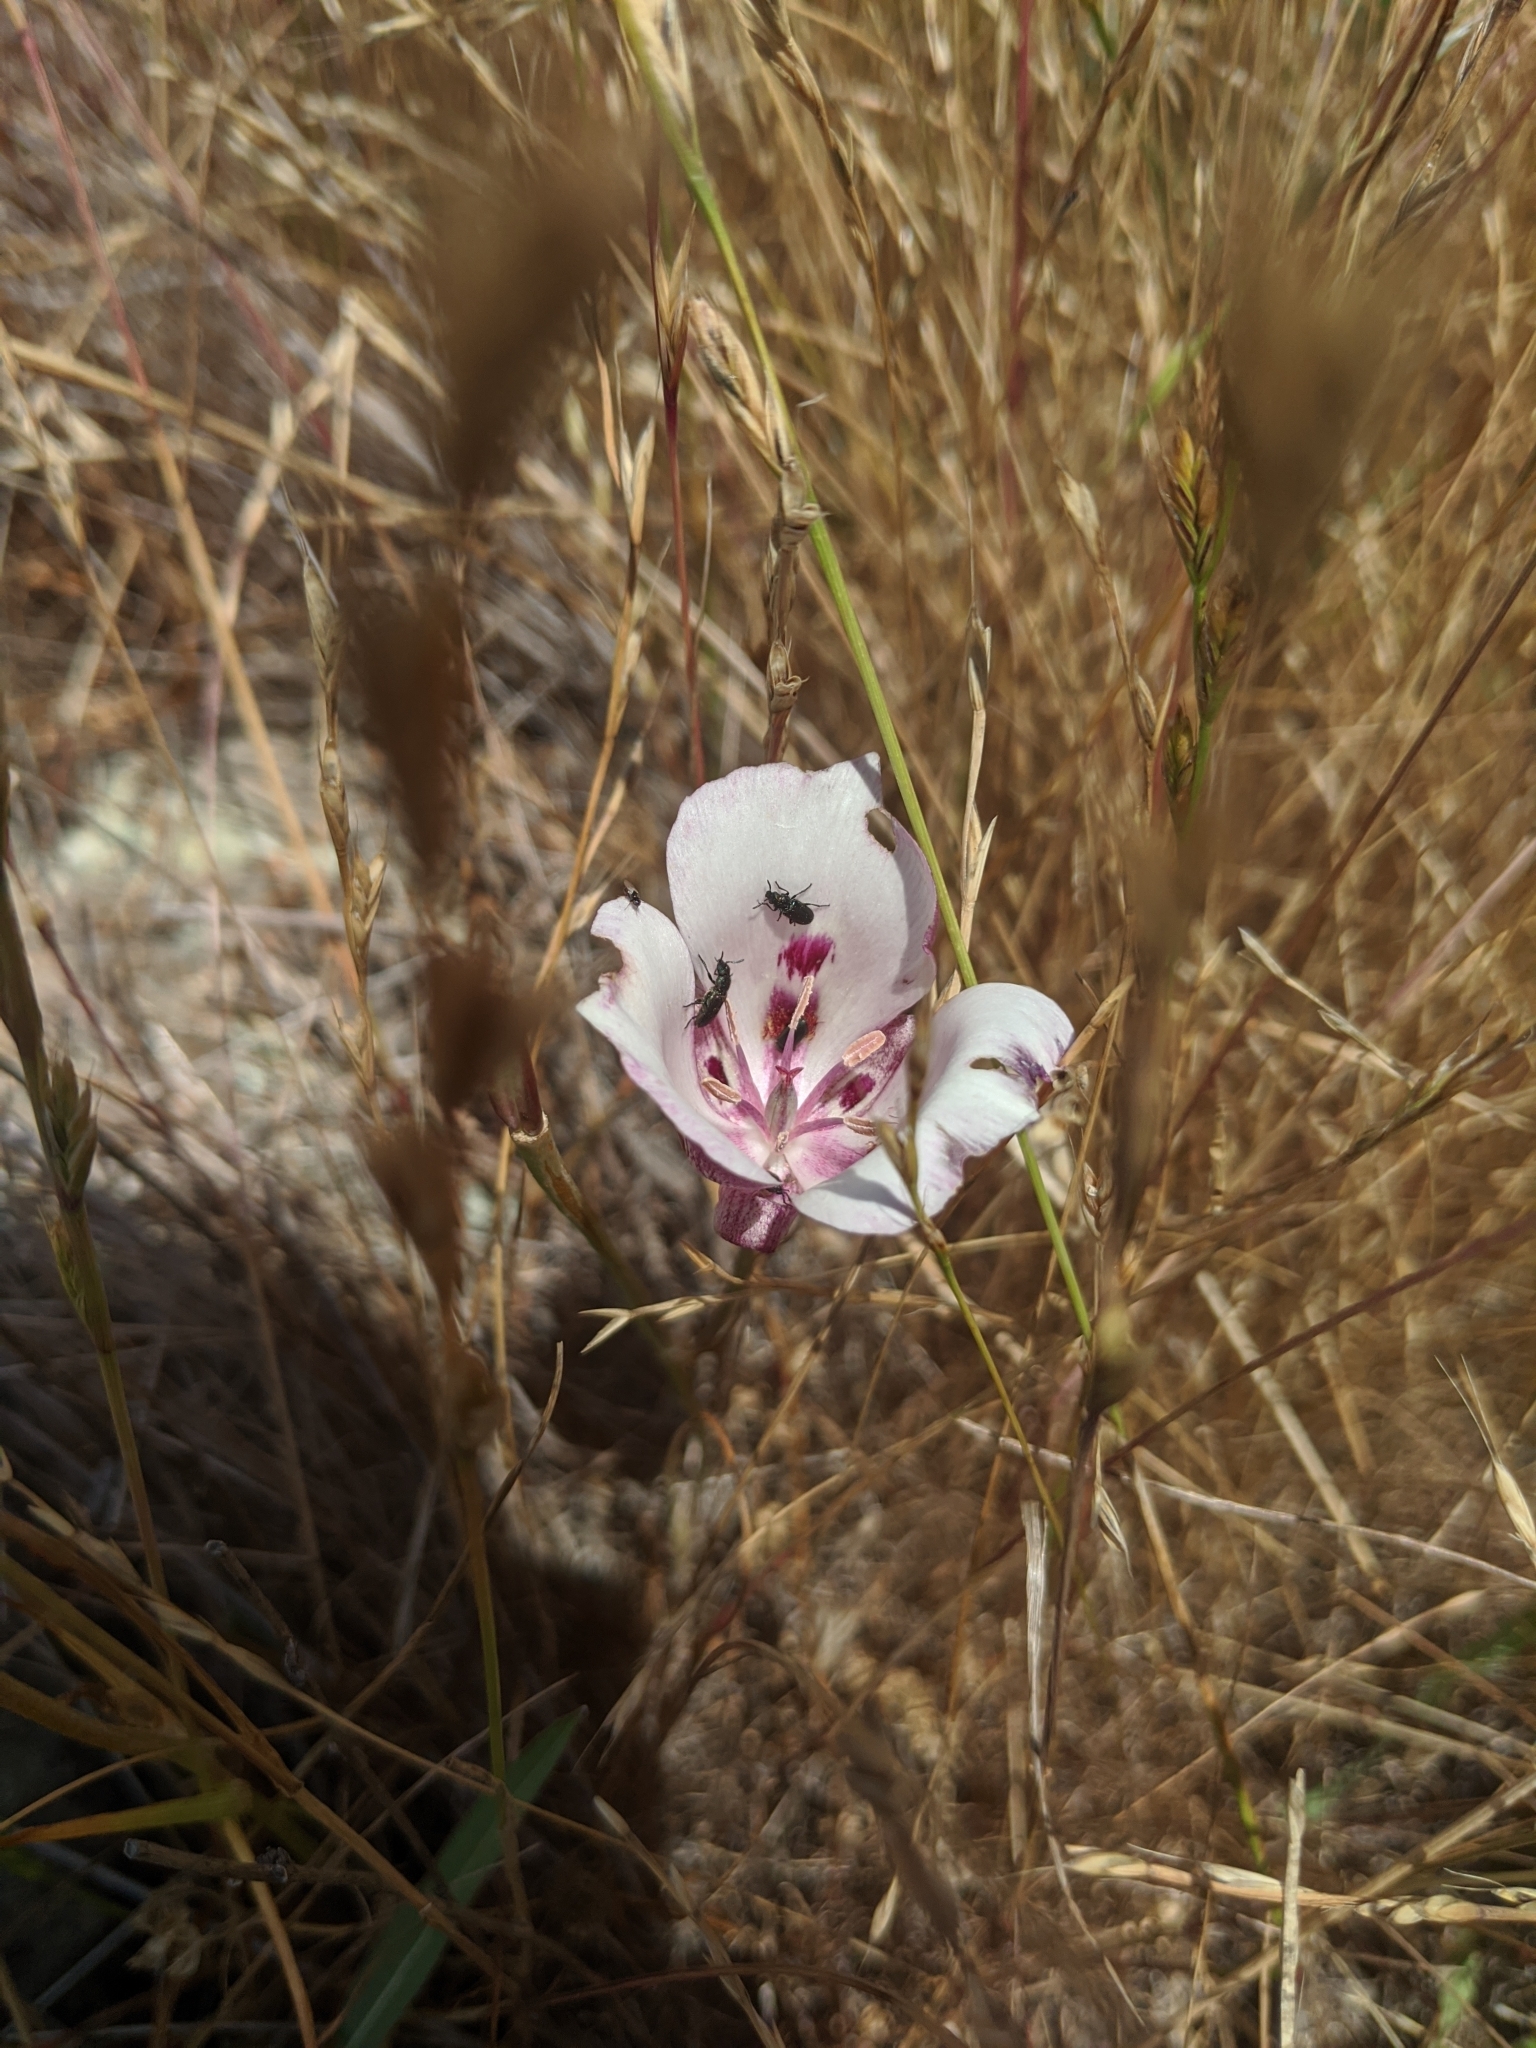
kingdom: Plantae
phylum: Tracheophyta
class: Liliopsida
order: Liliales
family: Liliaceae
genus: Calochortus
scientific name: Calochortus argillosus
